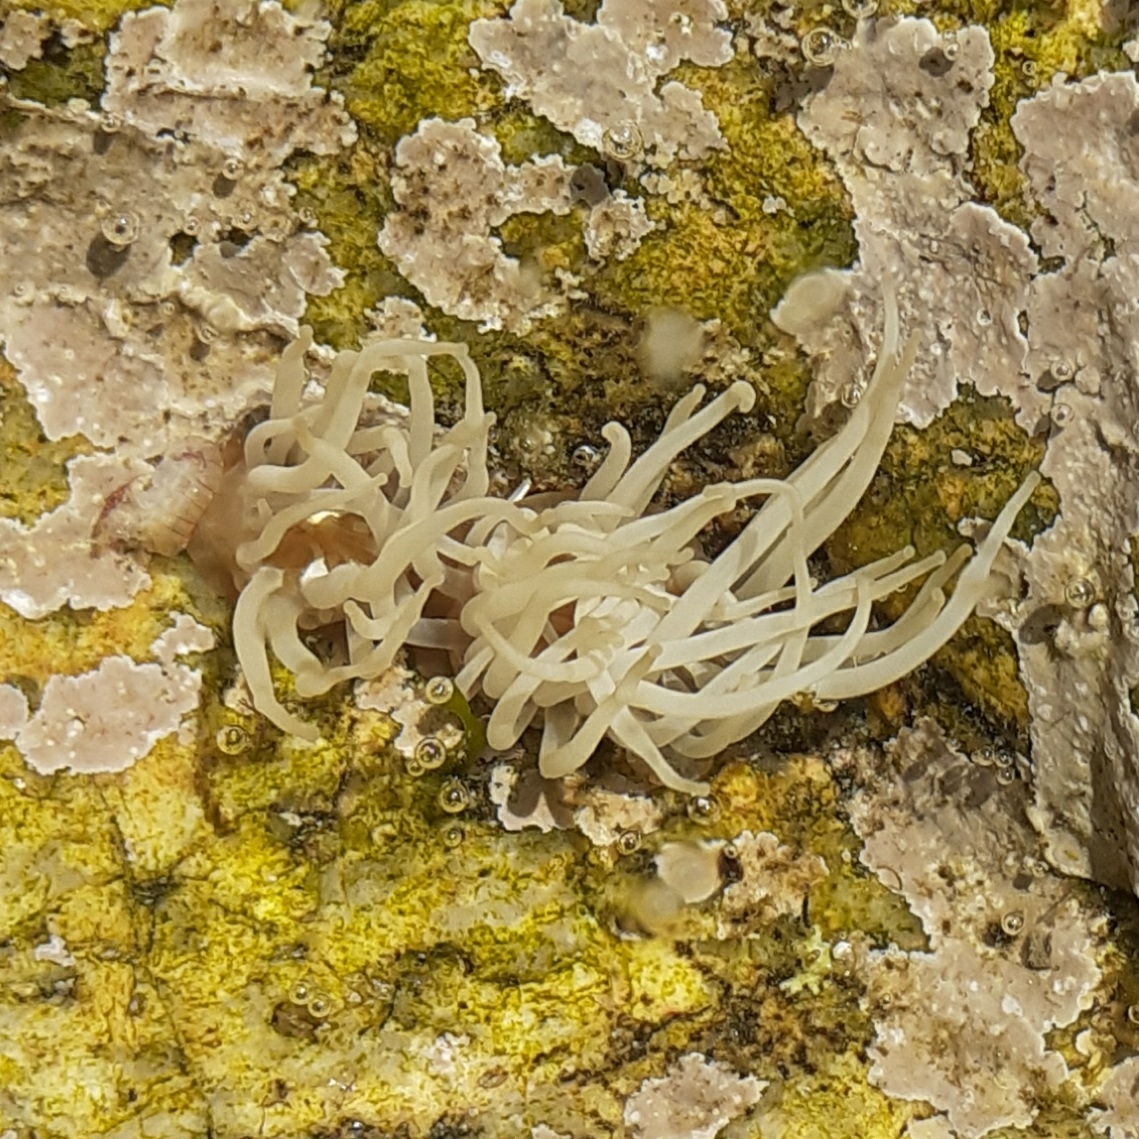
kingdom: Animalia
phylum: Cnidaria
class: Anthozoa
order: Actiniaria
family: Actiniidae
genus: Anemonia
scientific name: Anemonia viridis
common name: Snakelocks anemone
